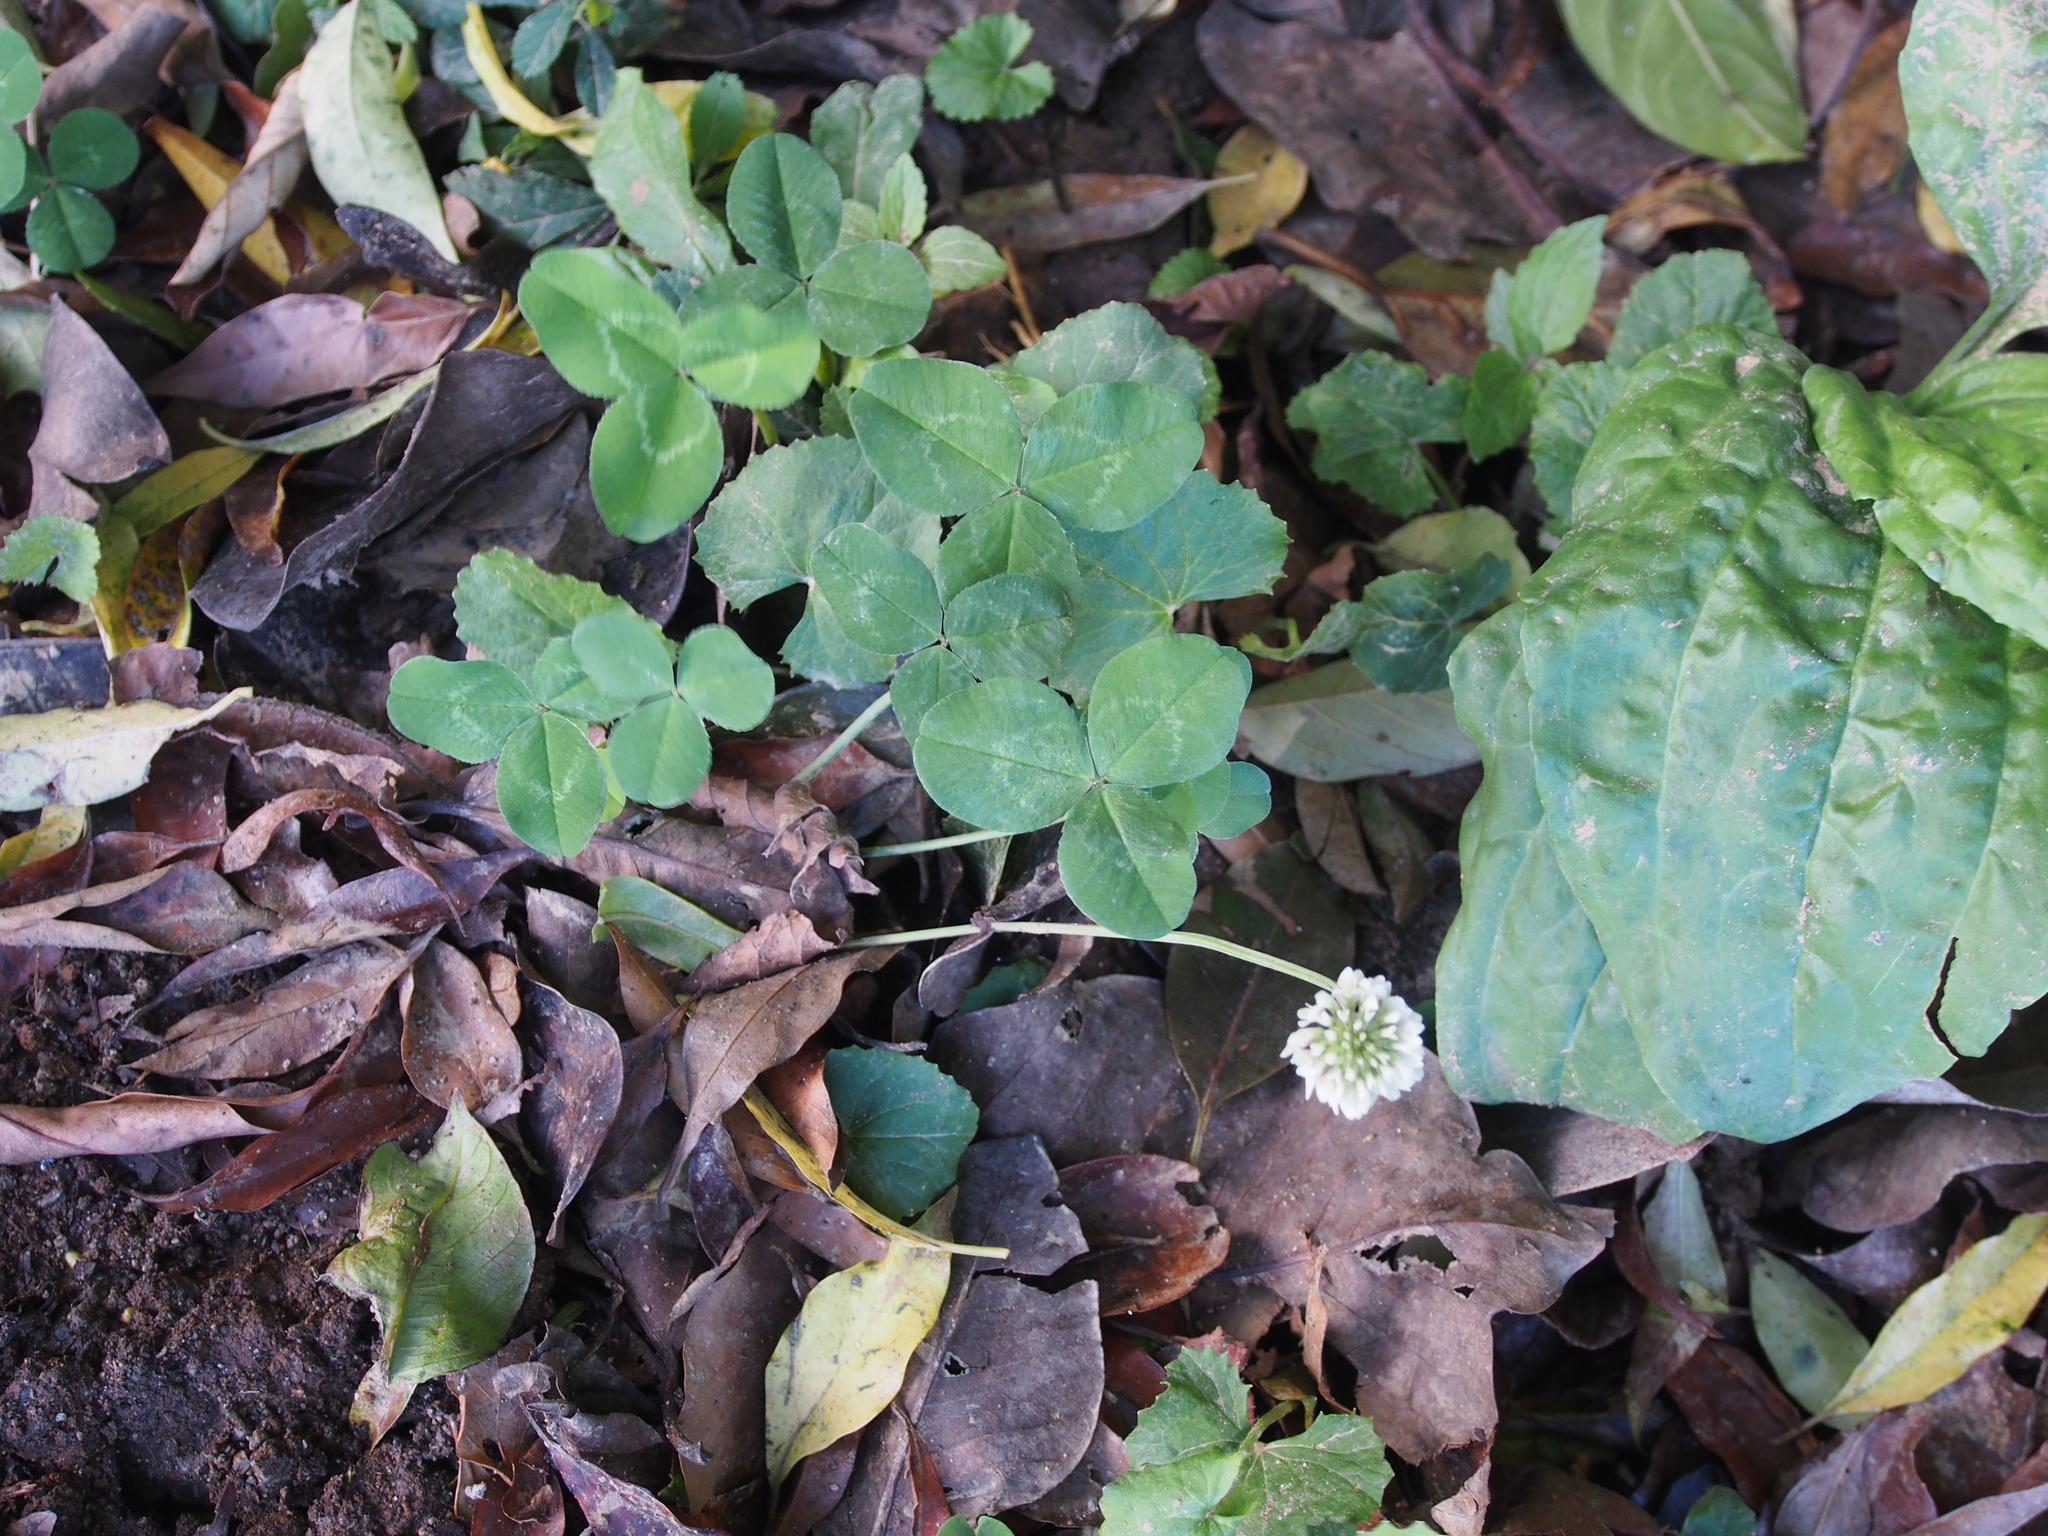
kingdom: Plantae
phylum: Tracheophyta
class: Magnoliopsida
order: Fabales
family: Fabaceae
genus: Trifolium
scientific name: Trifolium repens
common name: White clover
